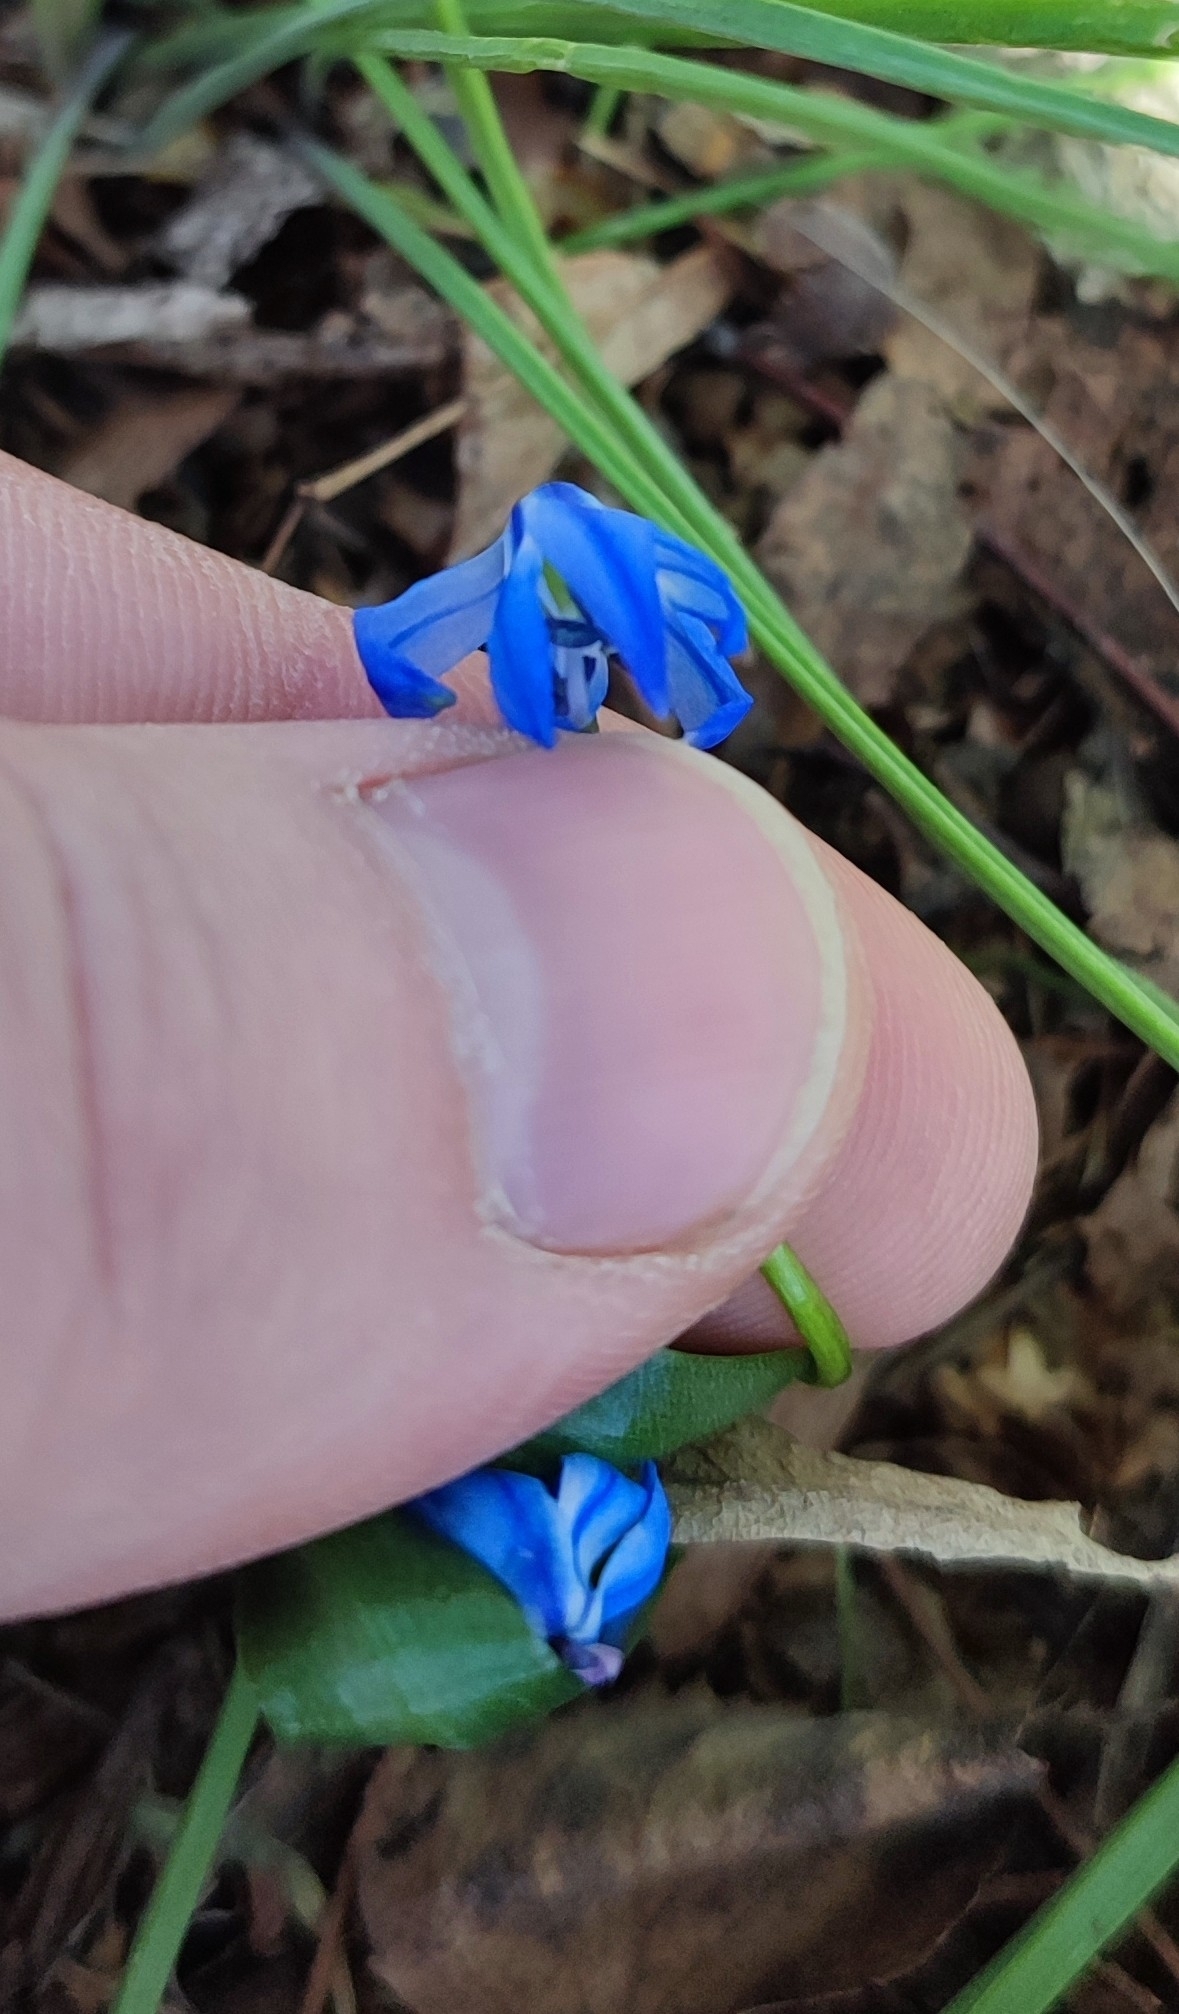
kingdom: Plantae
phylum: Tracheophyta
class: Liliopsida
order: Asparagales
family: Asparagaceae
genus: Scilla
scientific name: Scilla siberica
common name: Siberian squill
